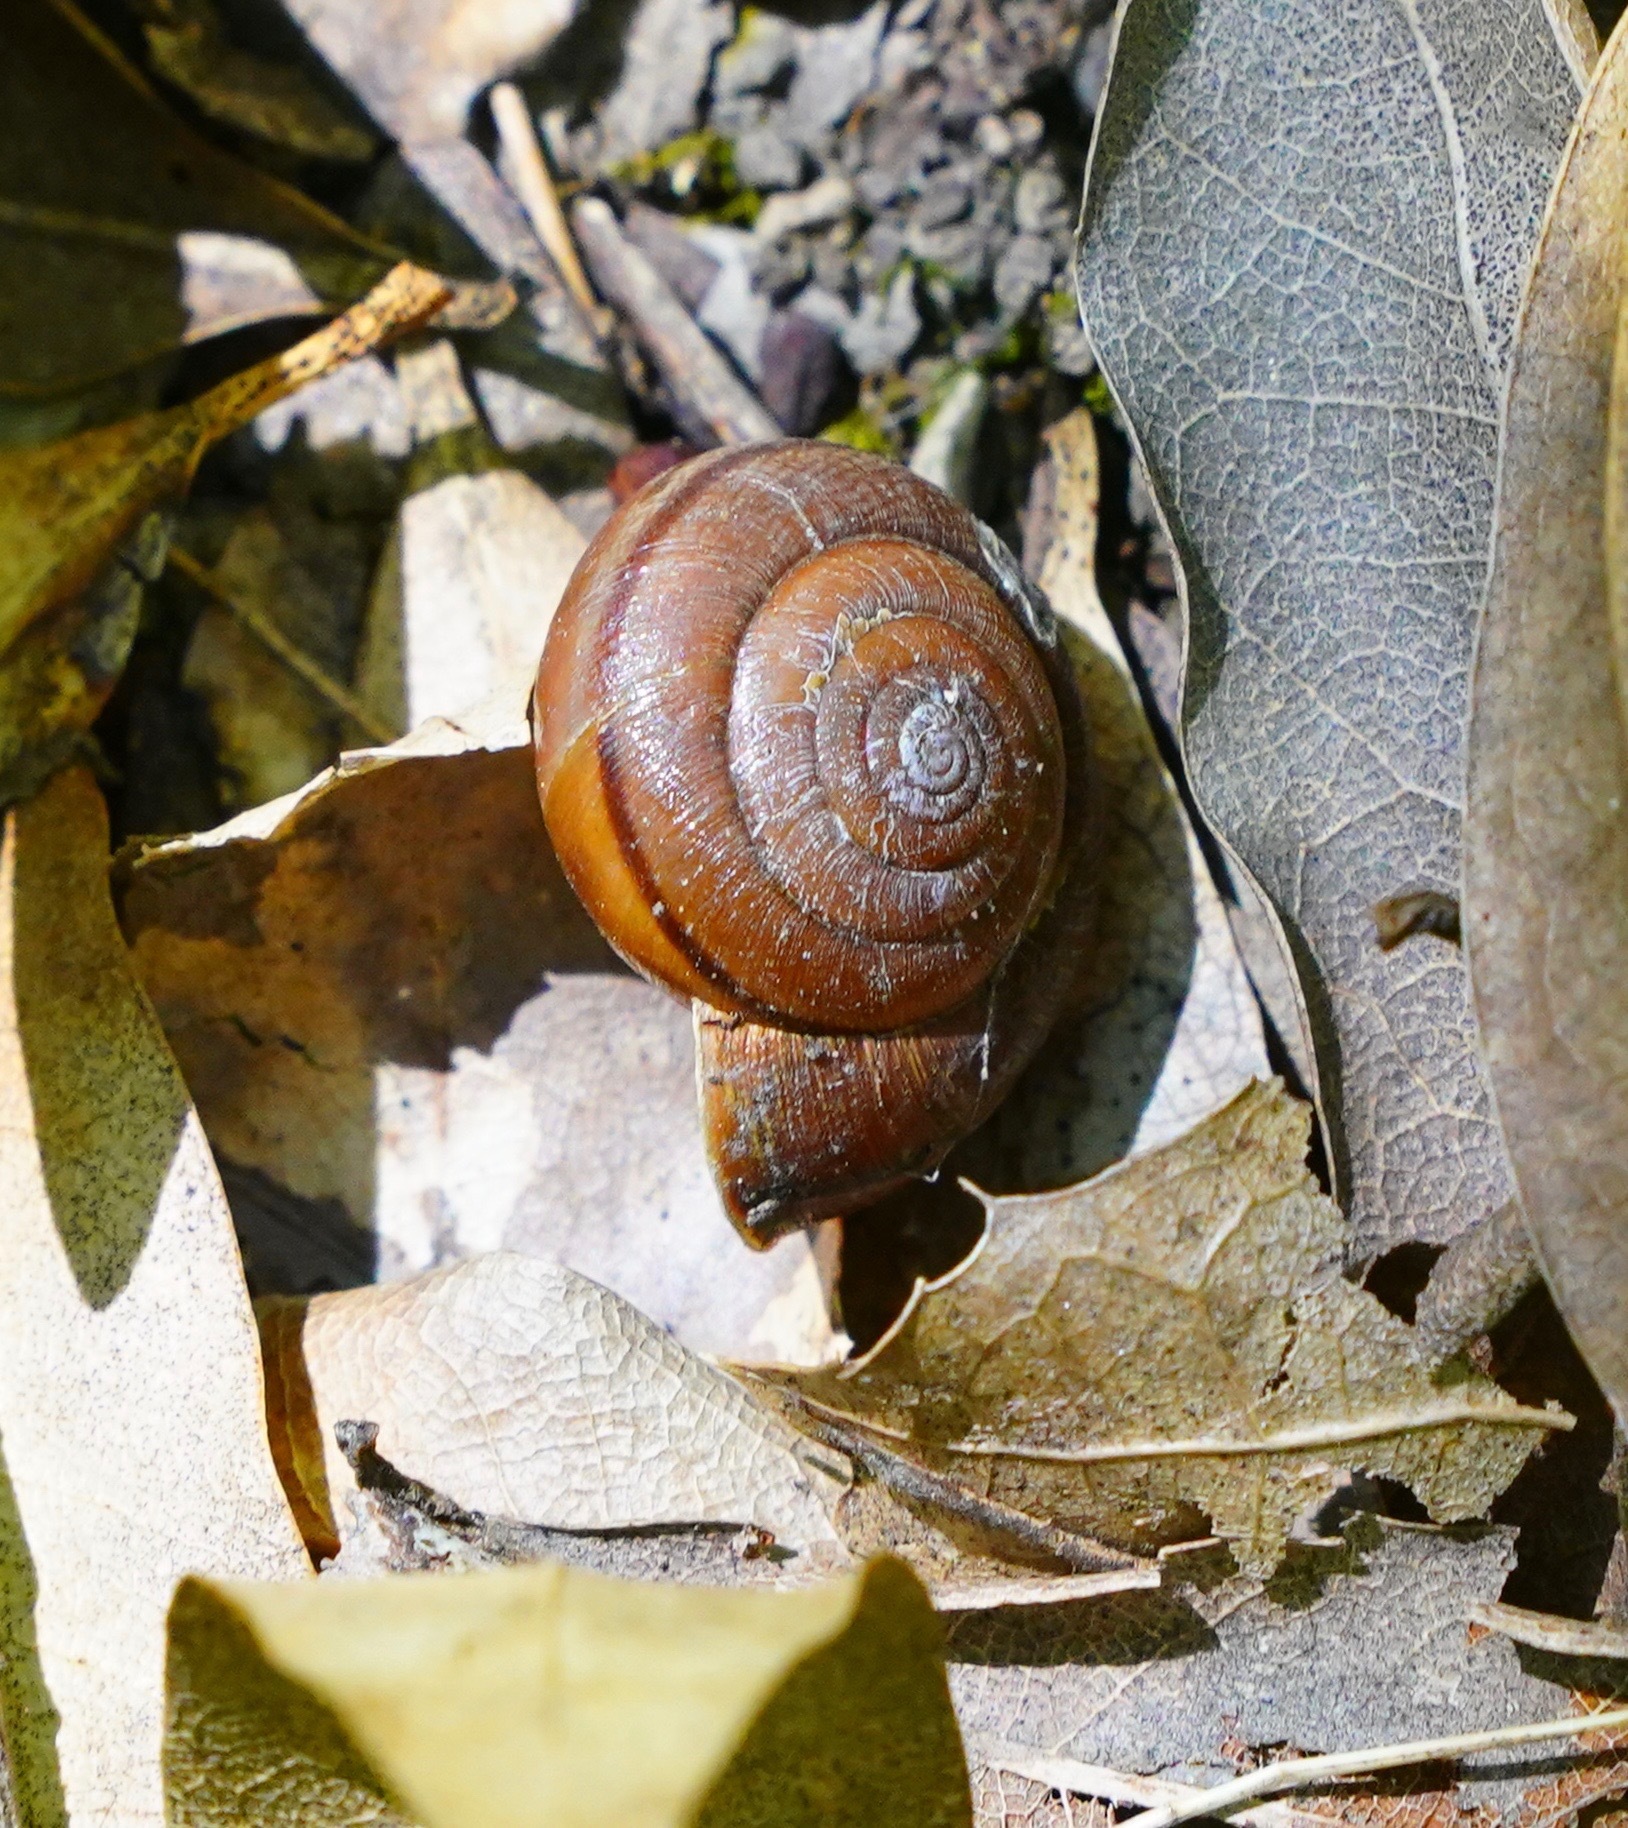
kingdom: Animalia
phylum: Mollusca
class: Gastropoda
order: Stylommatophora
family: Xanthonychidae
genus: Helminthoglypta
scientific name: Helminthoglypta diabloensis
